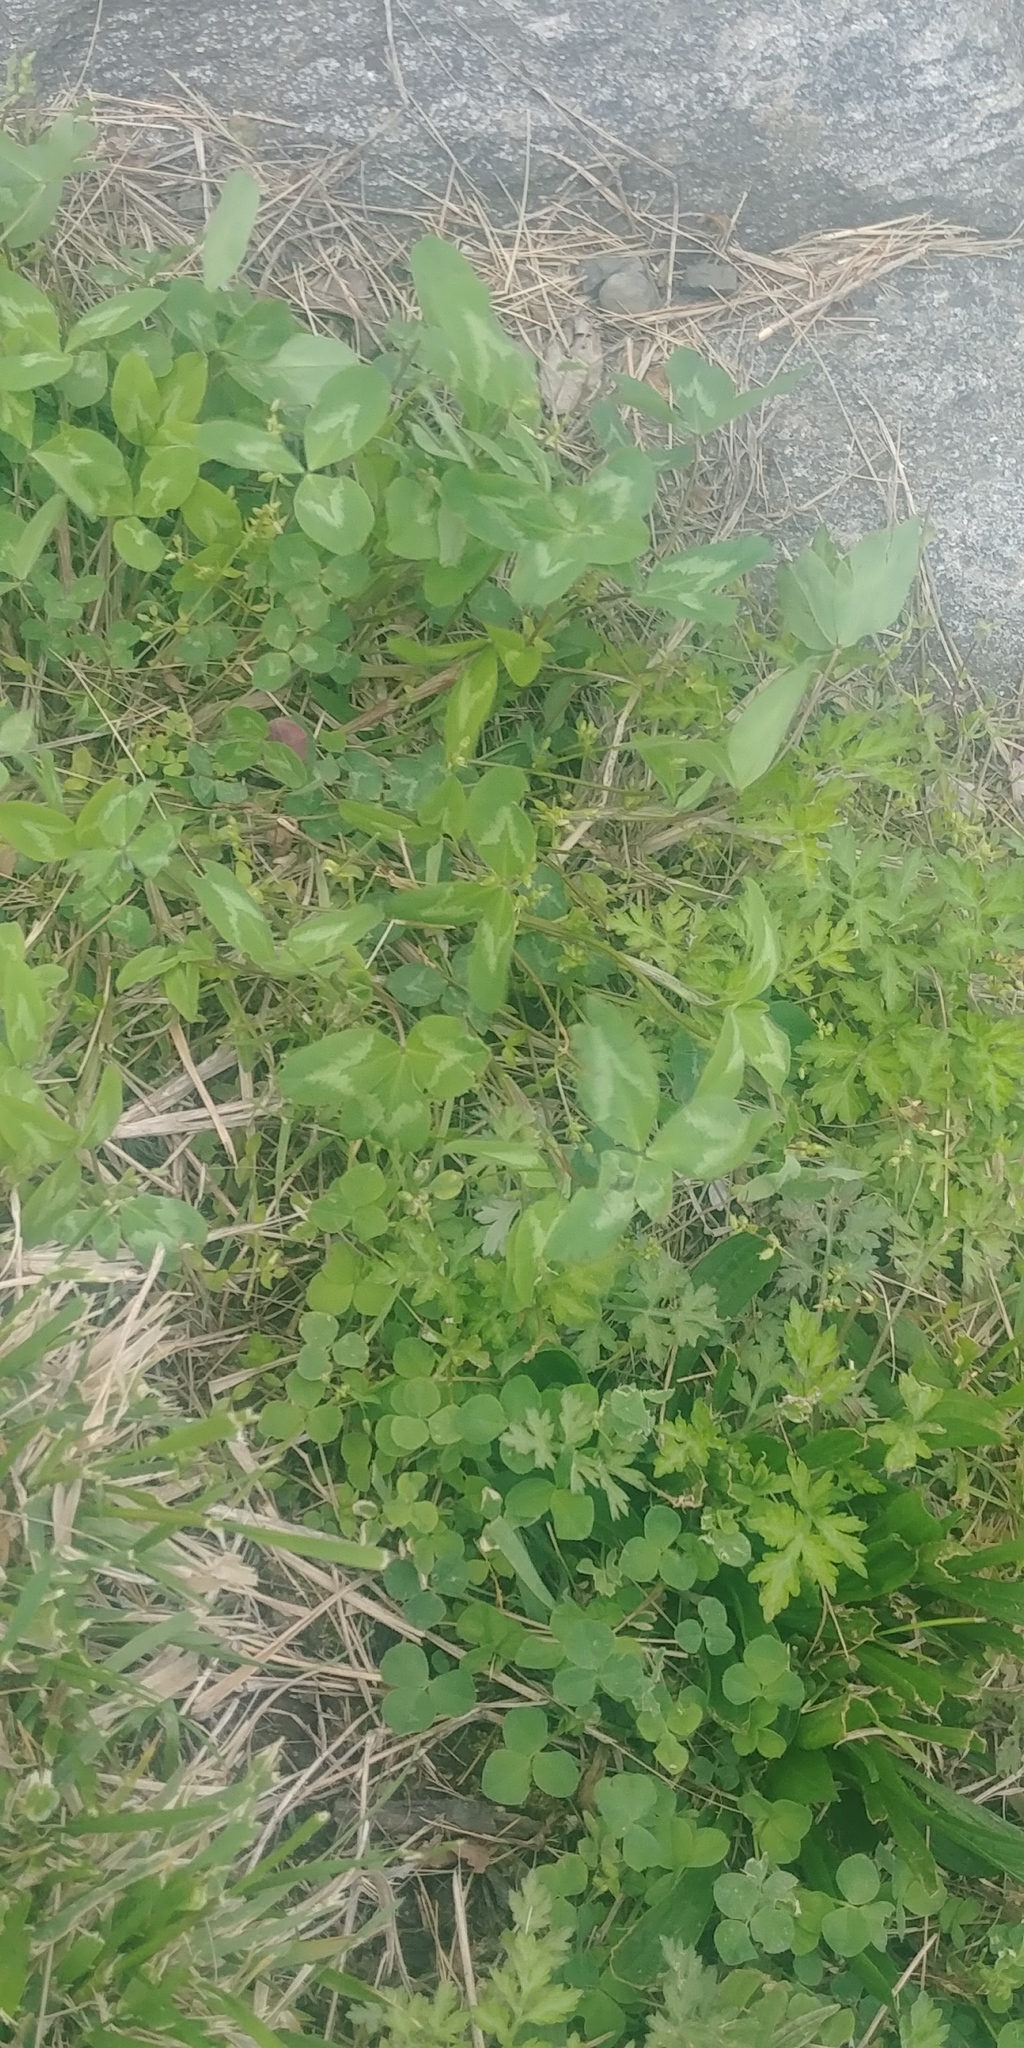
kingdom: Plantae
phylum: Tracheophyta
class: Magnoliopsida
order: Fabales
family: Fabaceae
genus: Trifolium
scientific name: Trifolium pratense
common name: Red clover
